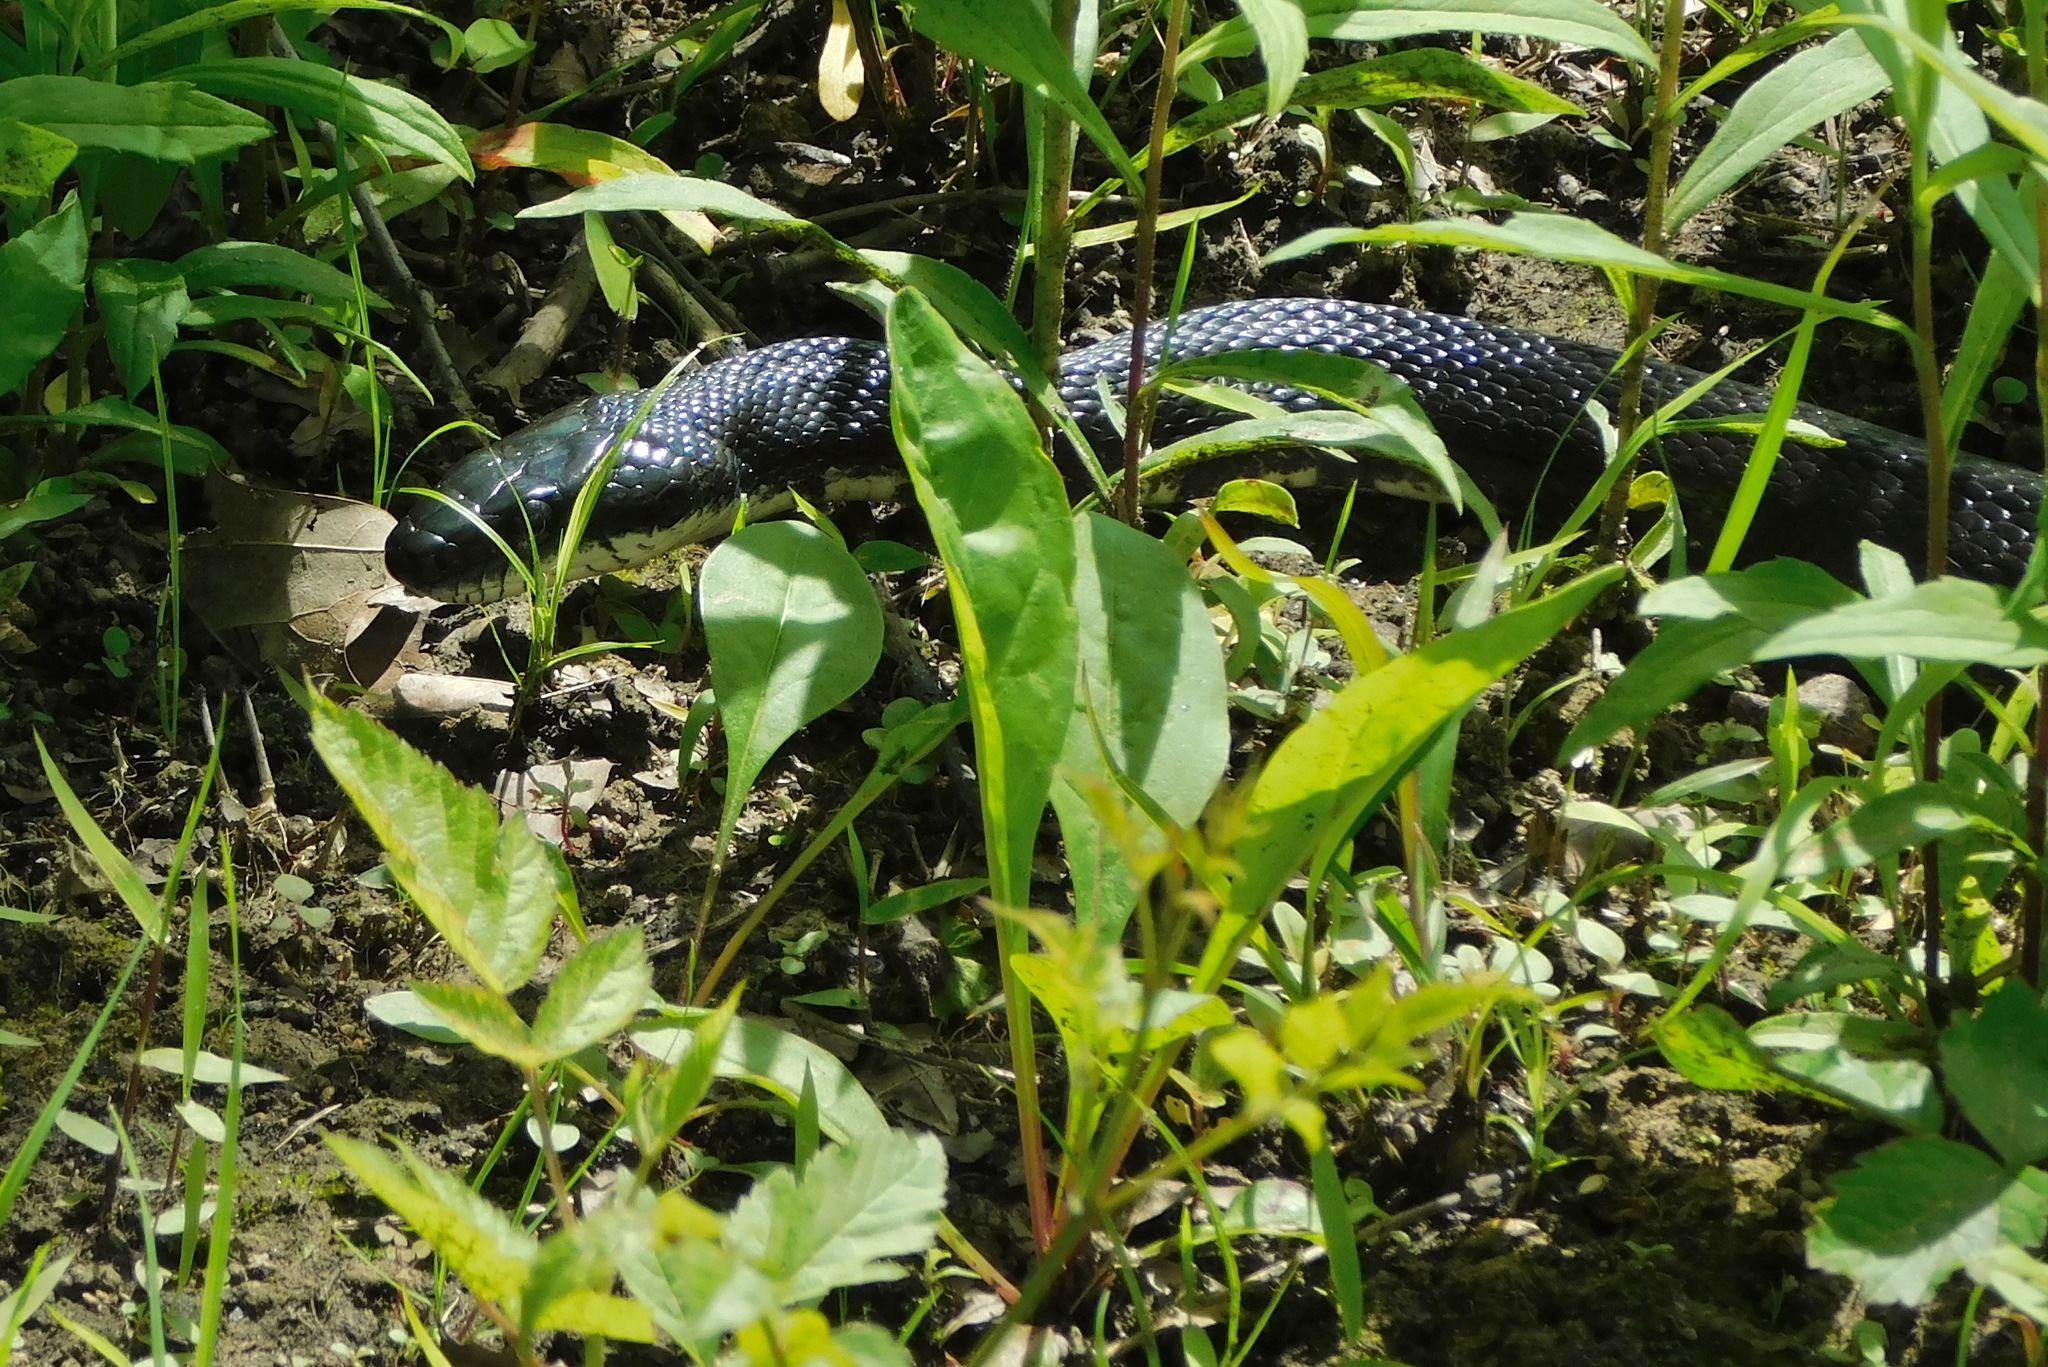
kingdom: Animalia
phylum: Chordata
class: Squamata
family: Colubridae
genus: Pantherophis
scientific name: Pantherophis
